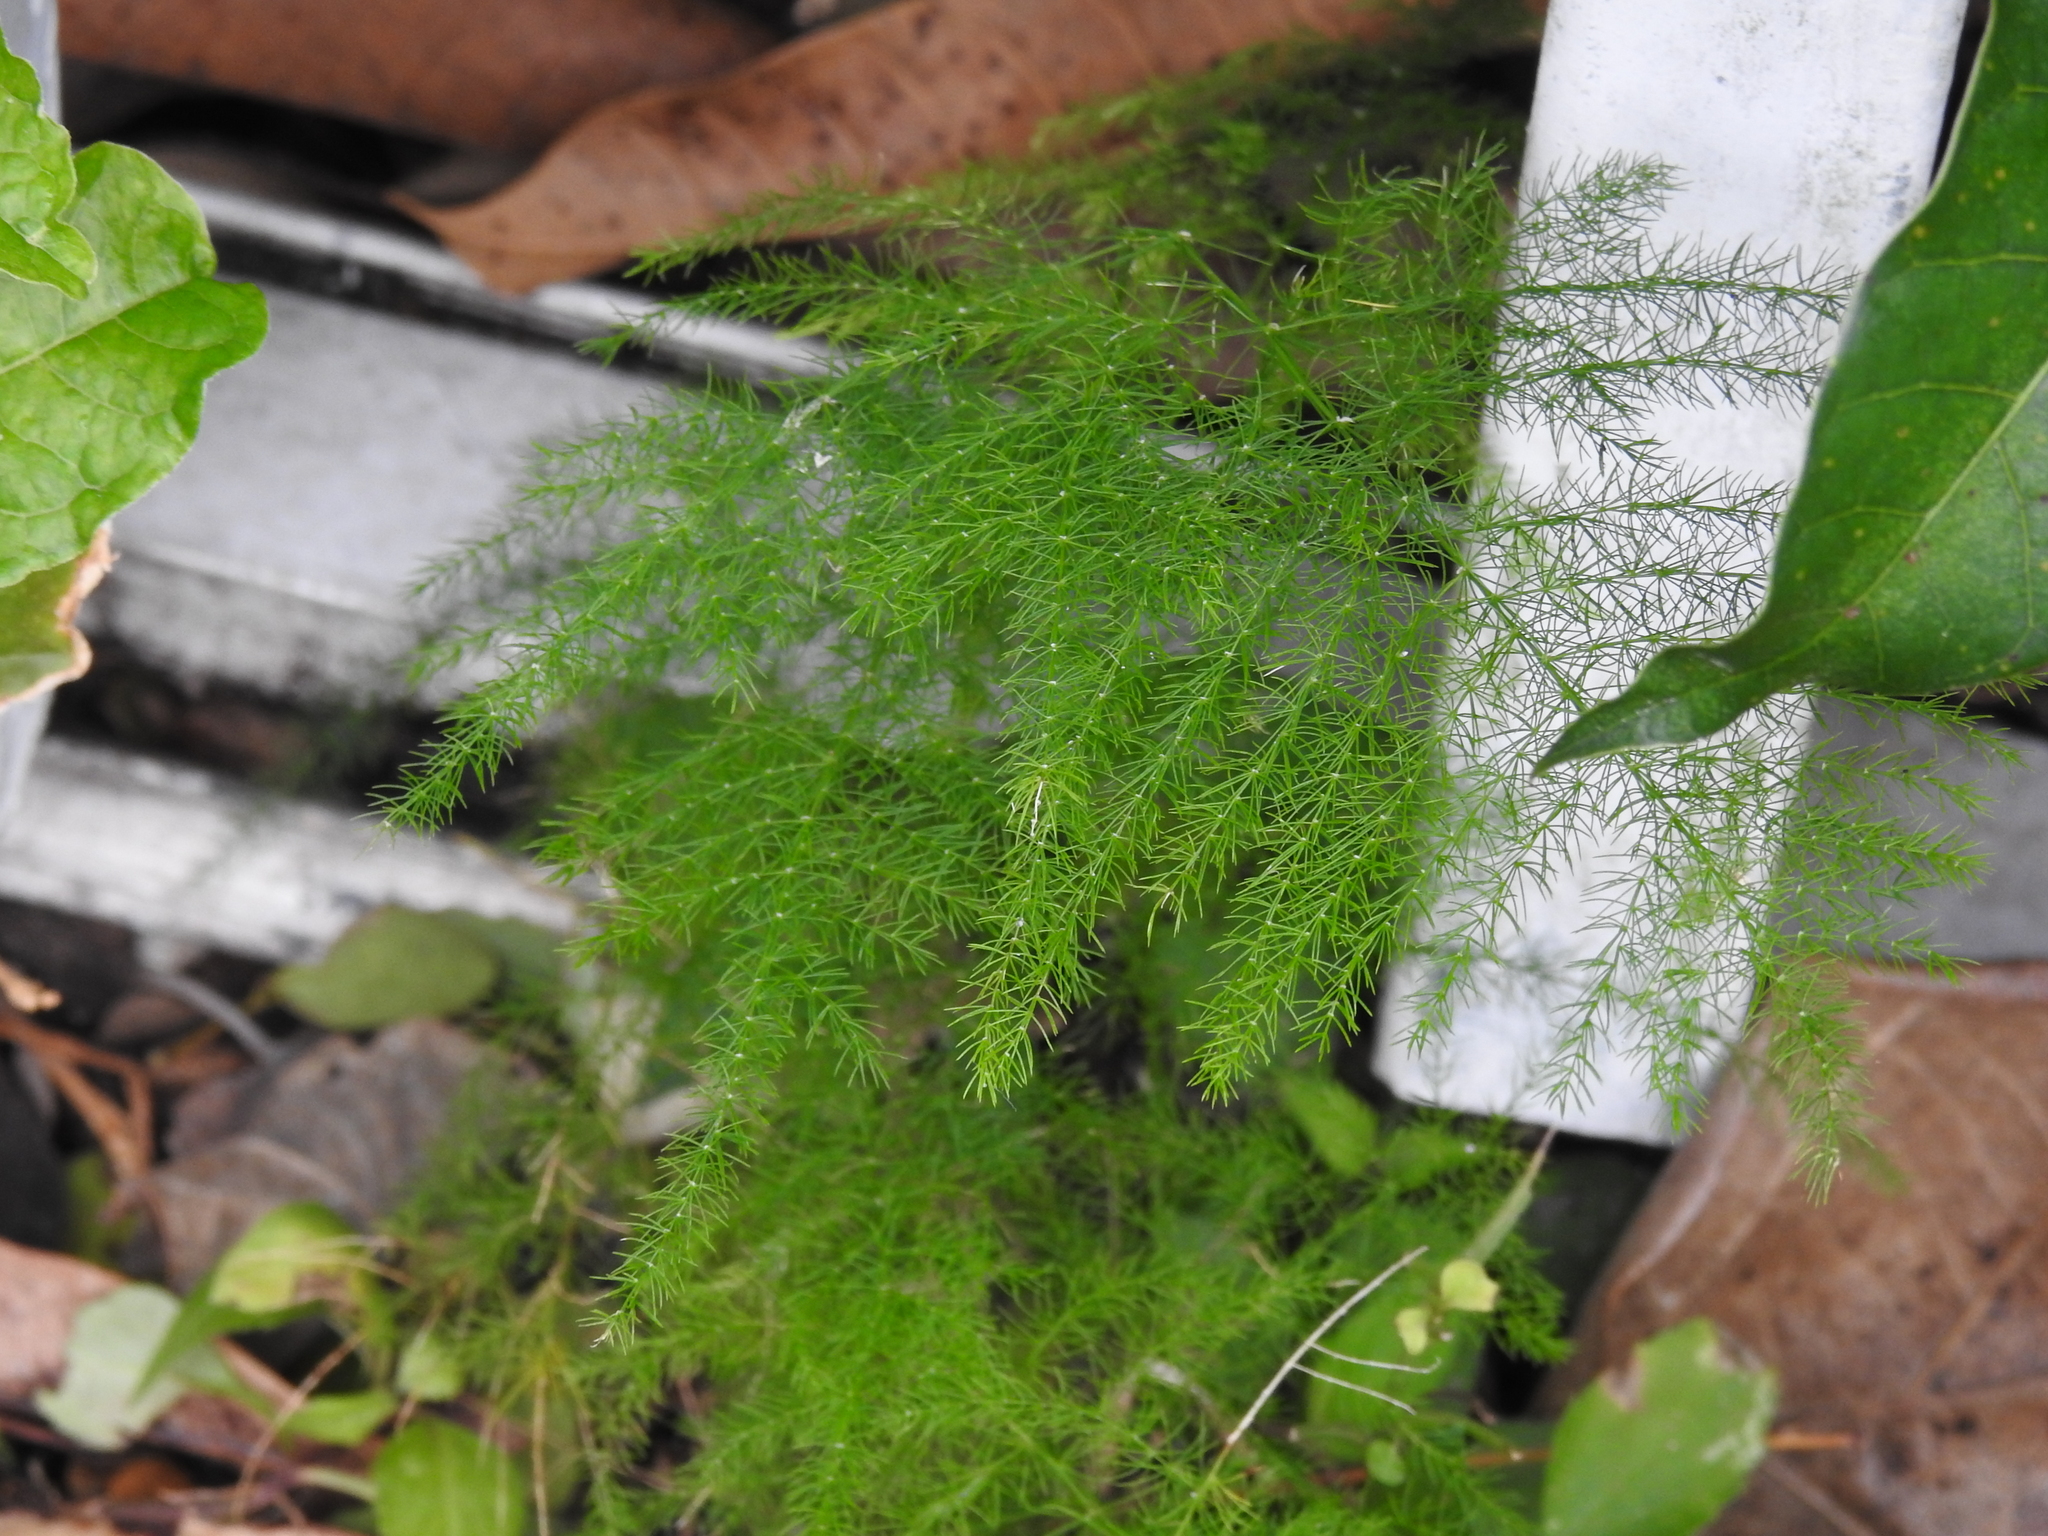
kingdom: Plantae
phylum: Tracheophyta
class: Liliopsida
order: Asparagales
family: Asparagaceae
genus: Asparagus
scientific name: Asparagus setaceus
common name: Common asparagus fern
